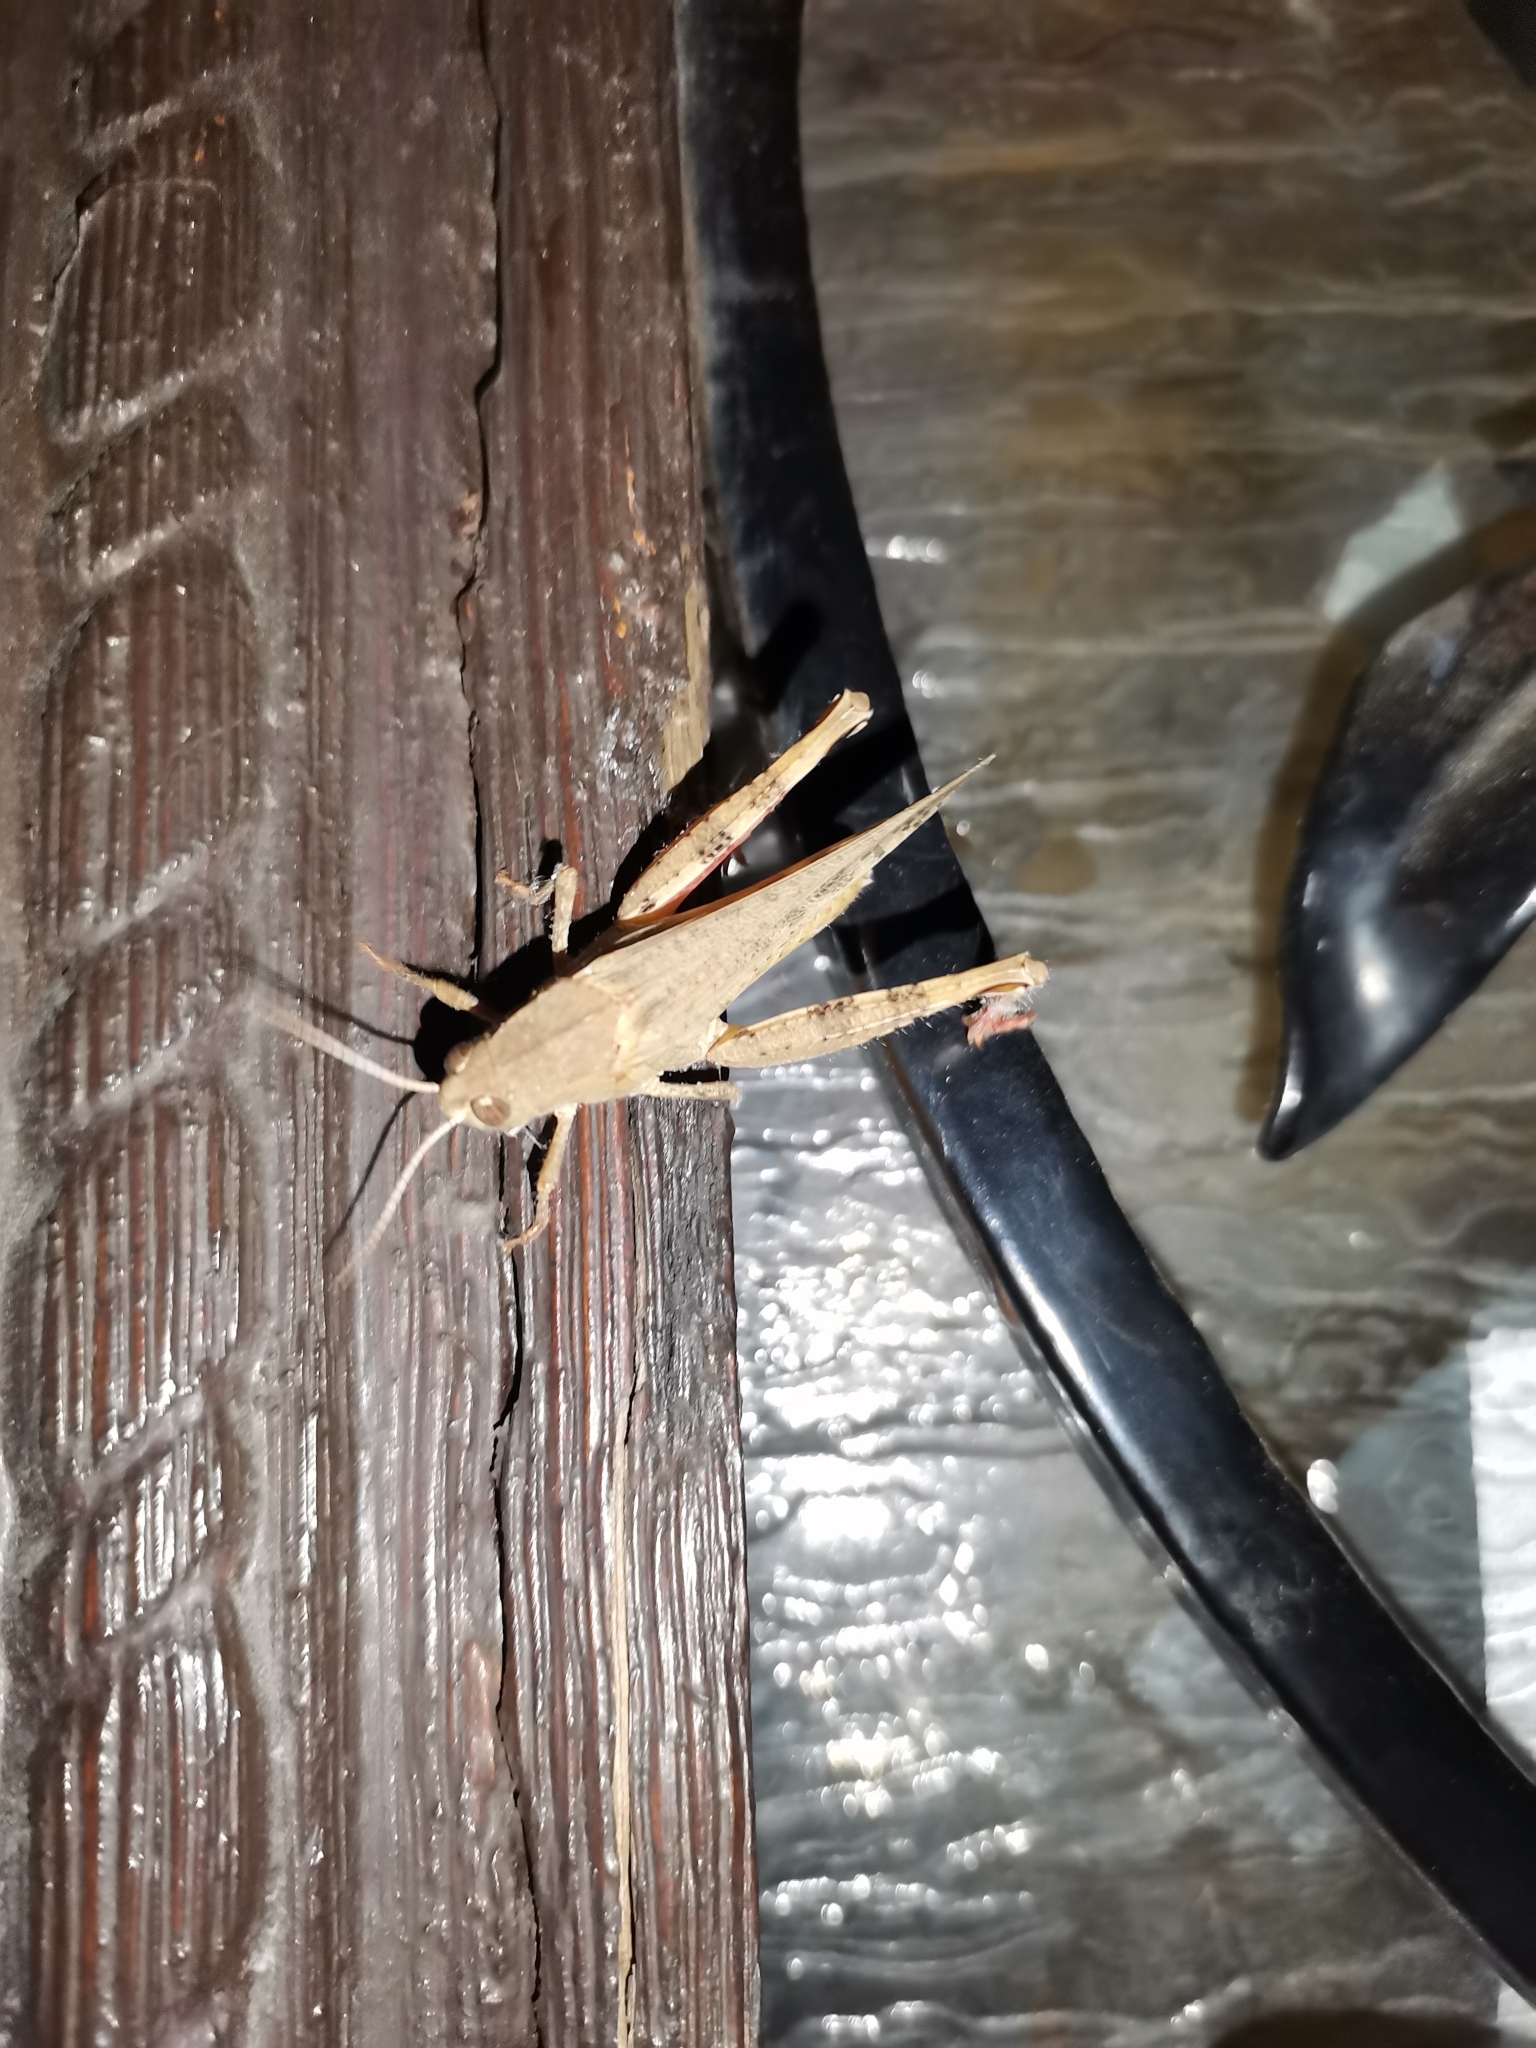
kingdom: Animalia
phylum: Arthropoda
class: Insecta
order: Orthoptera
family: Acrididae
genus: Calliptamus
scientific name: Calliptamus italicus
